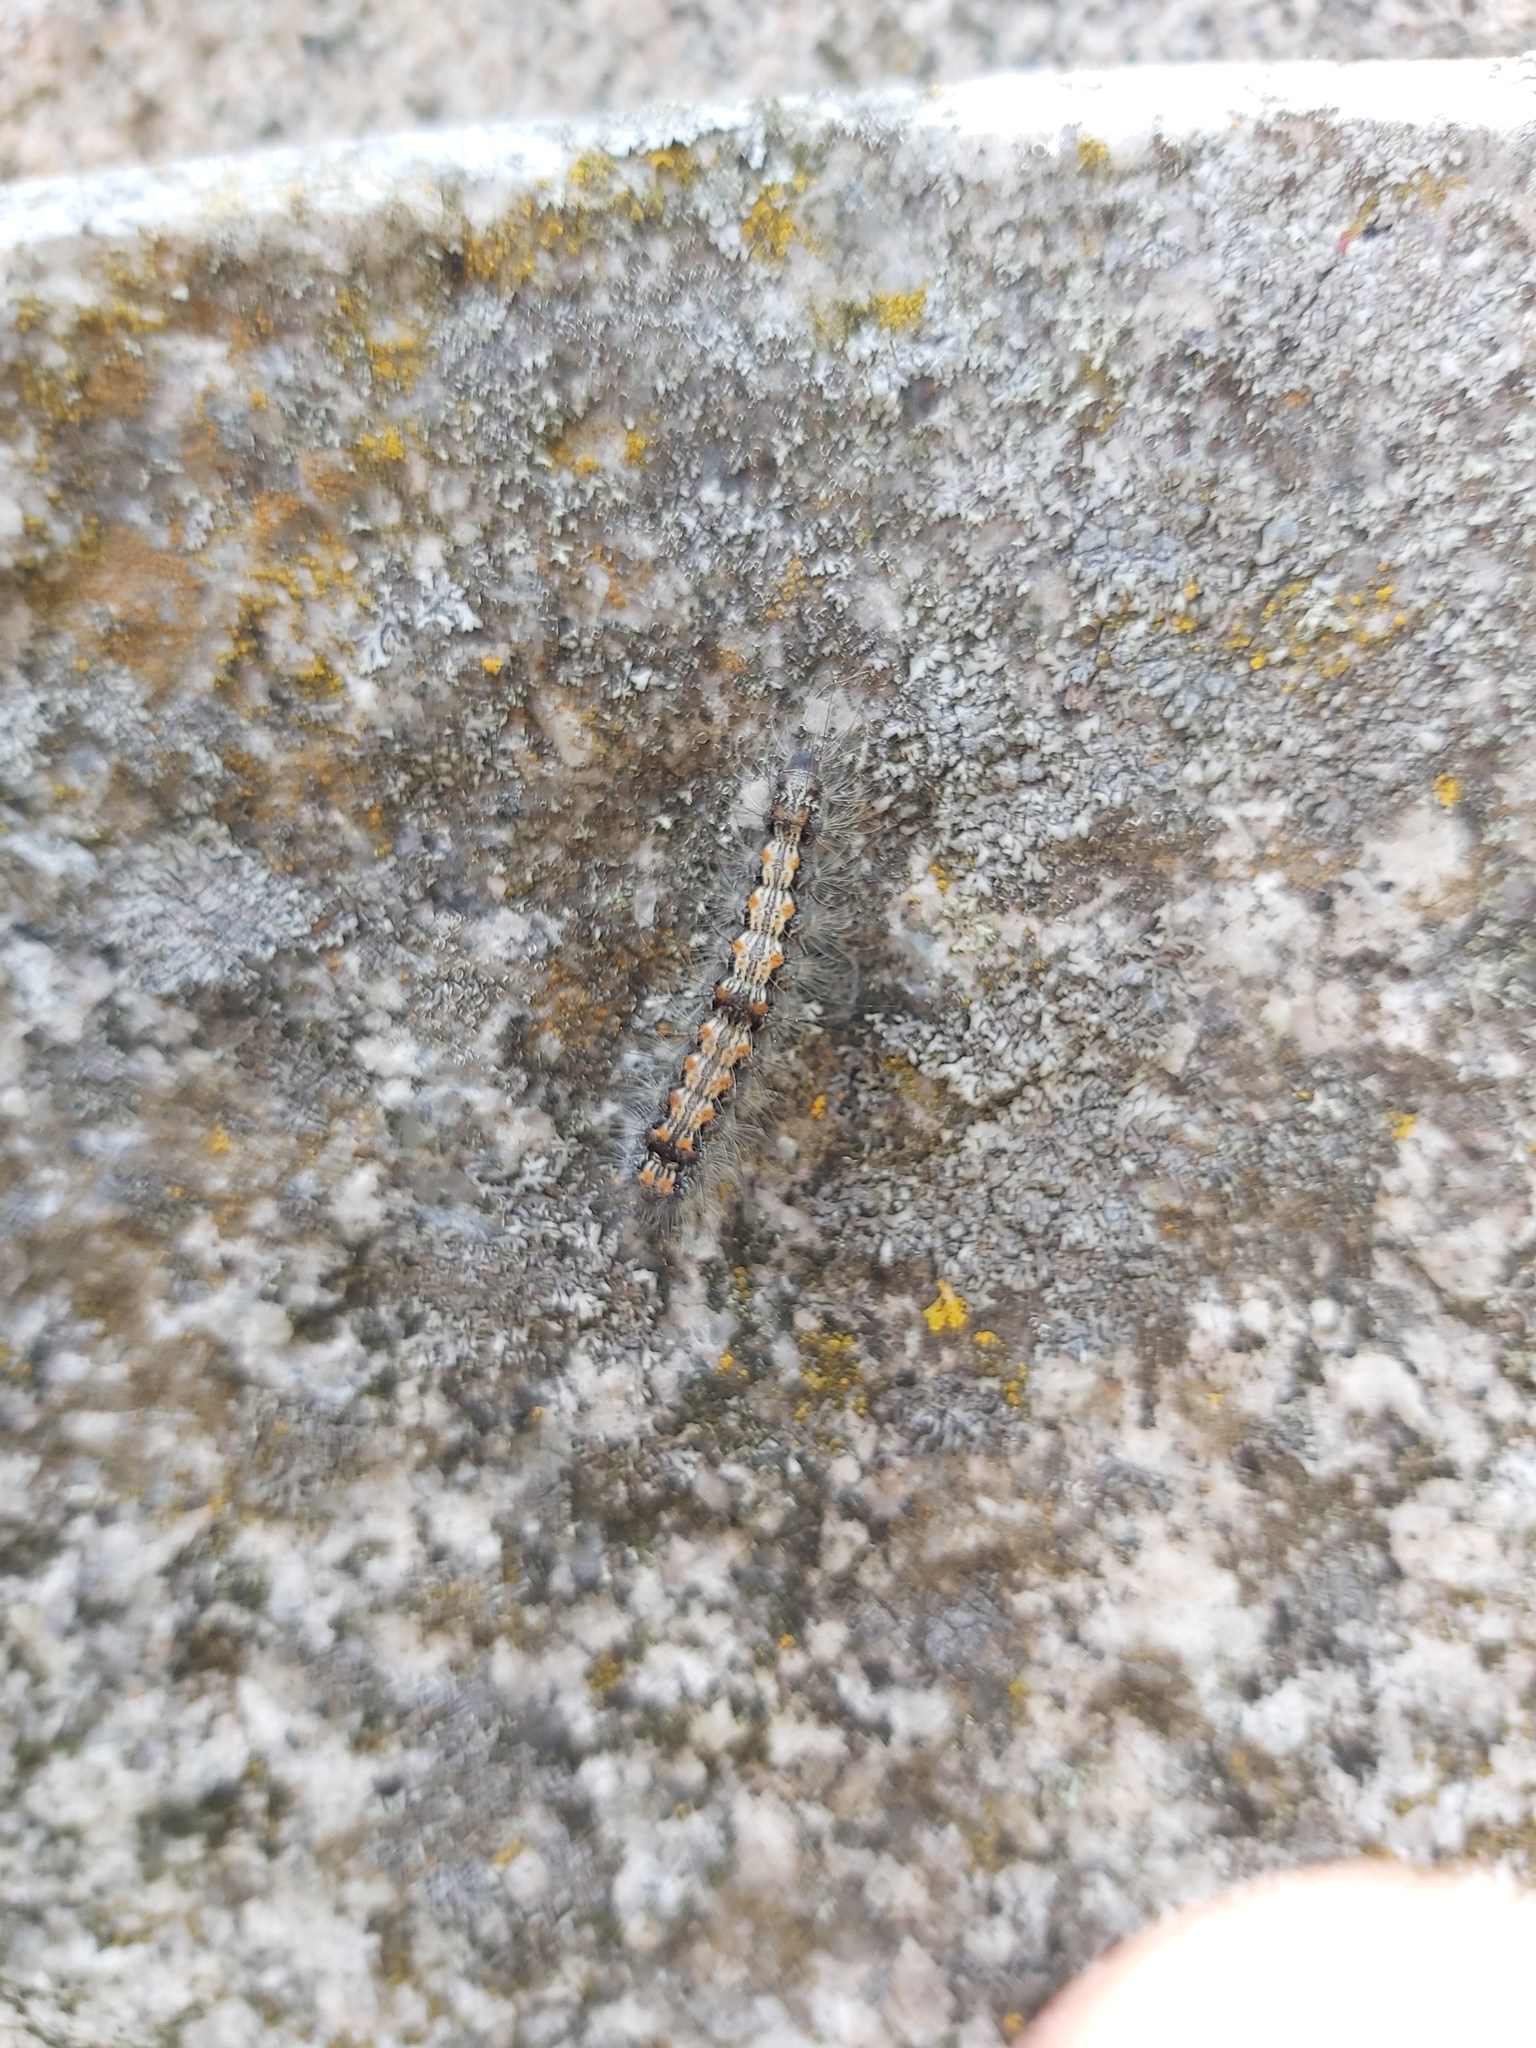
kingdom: Animalia
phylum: Arthropoda
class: Insecta
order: Lepidoptera
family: Erebidae
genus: Lithosia
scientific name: Lithosia quadra
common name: Four-spotted footman
